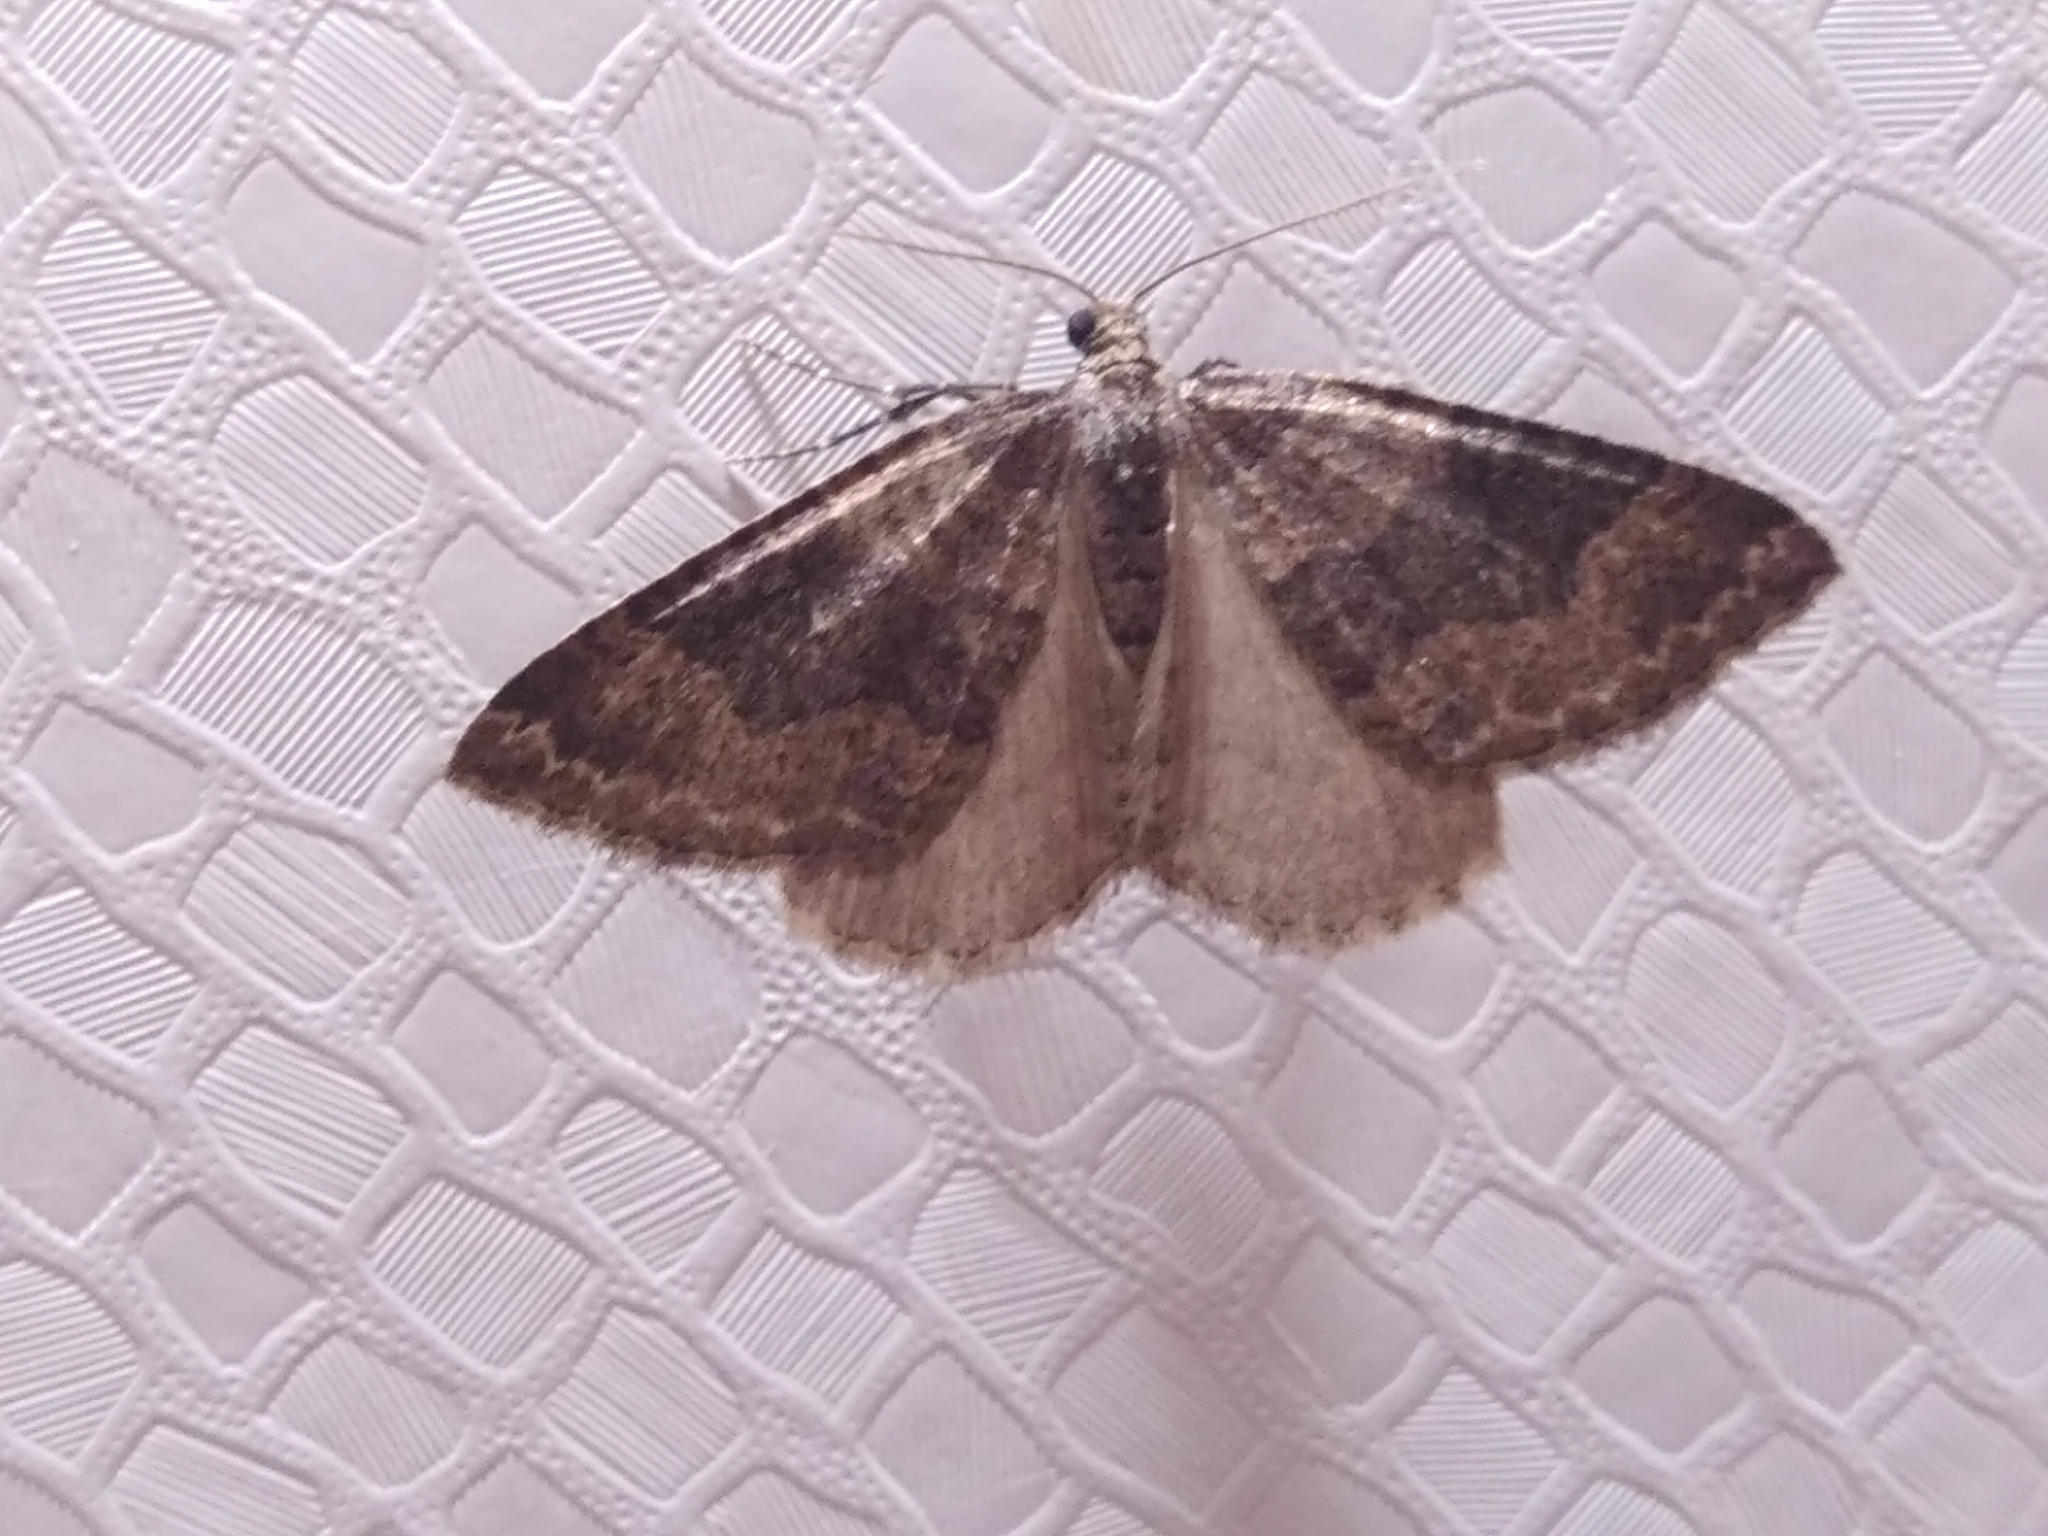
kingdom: Animalia
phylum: Arthropoda
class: Insecta
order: Lepidoptera
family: Geometridae
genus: Nebula
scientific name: Nebula malvata
